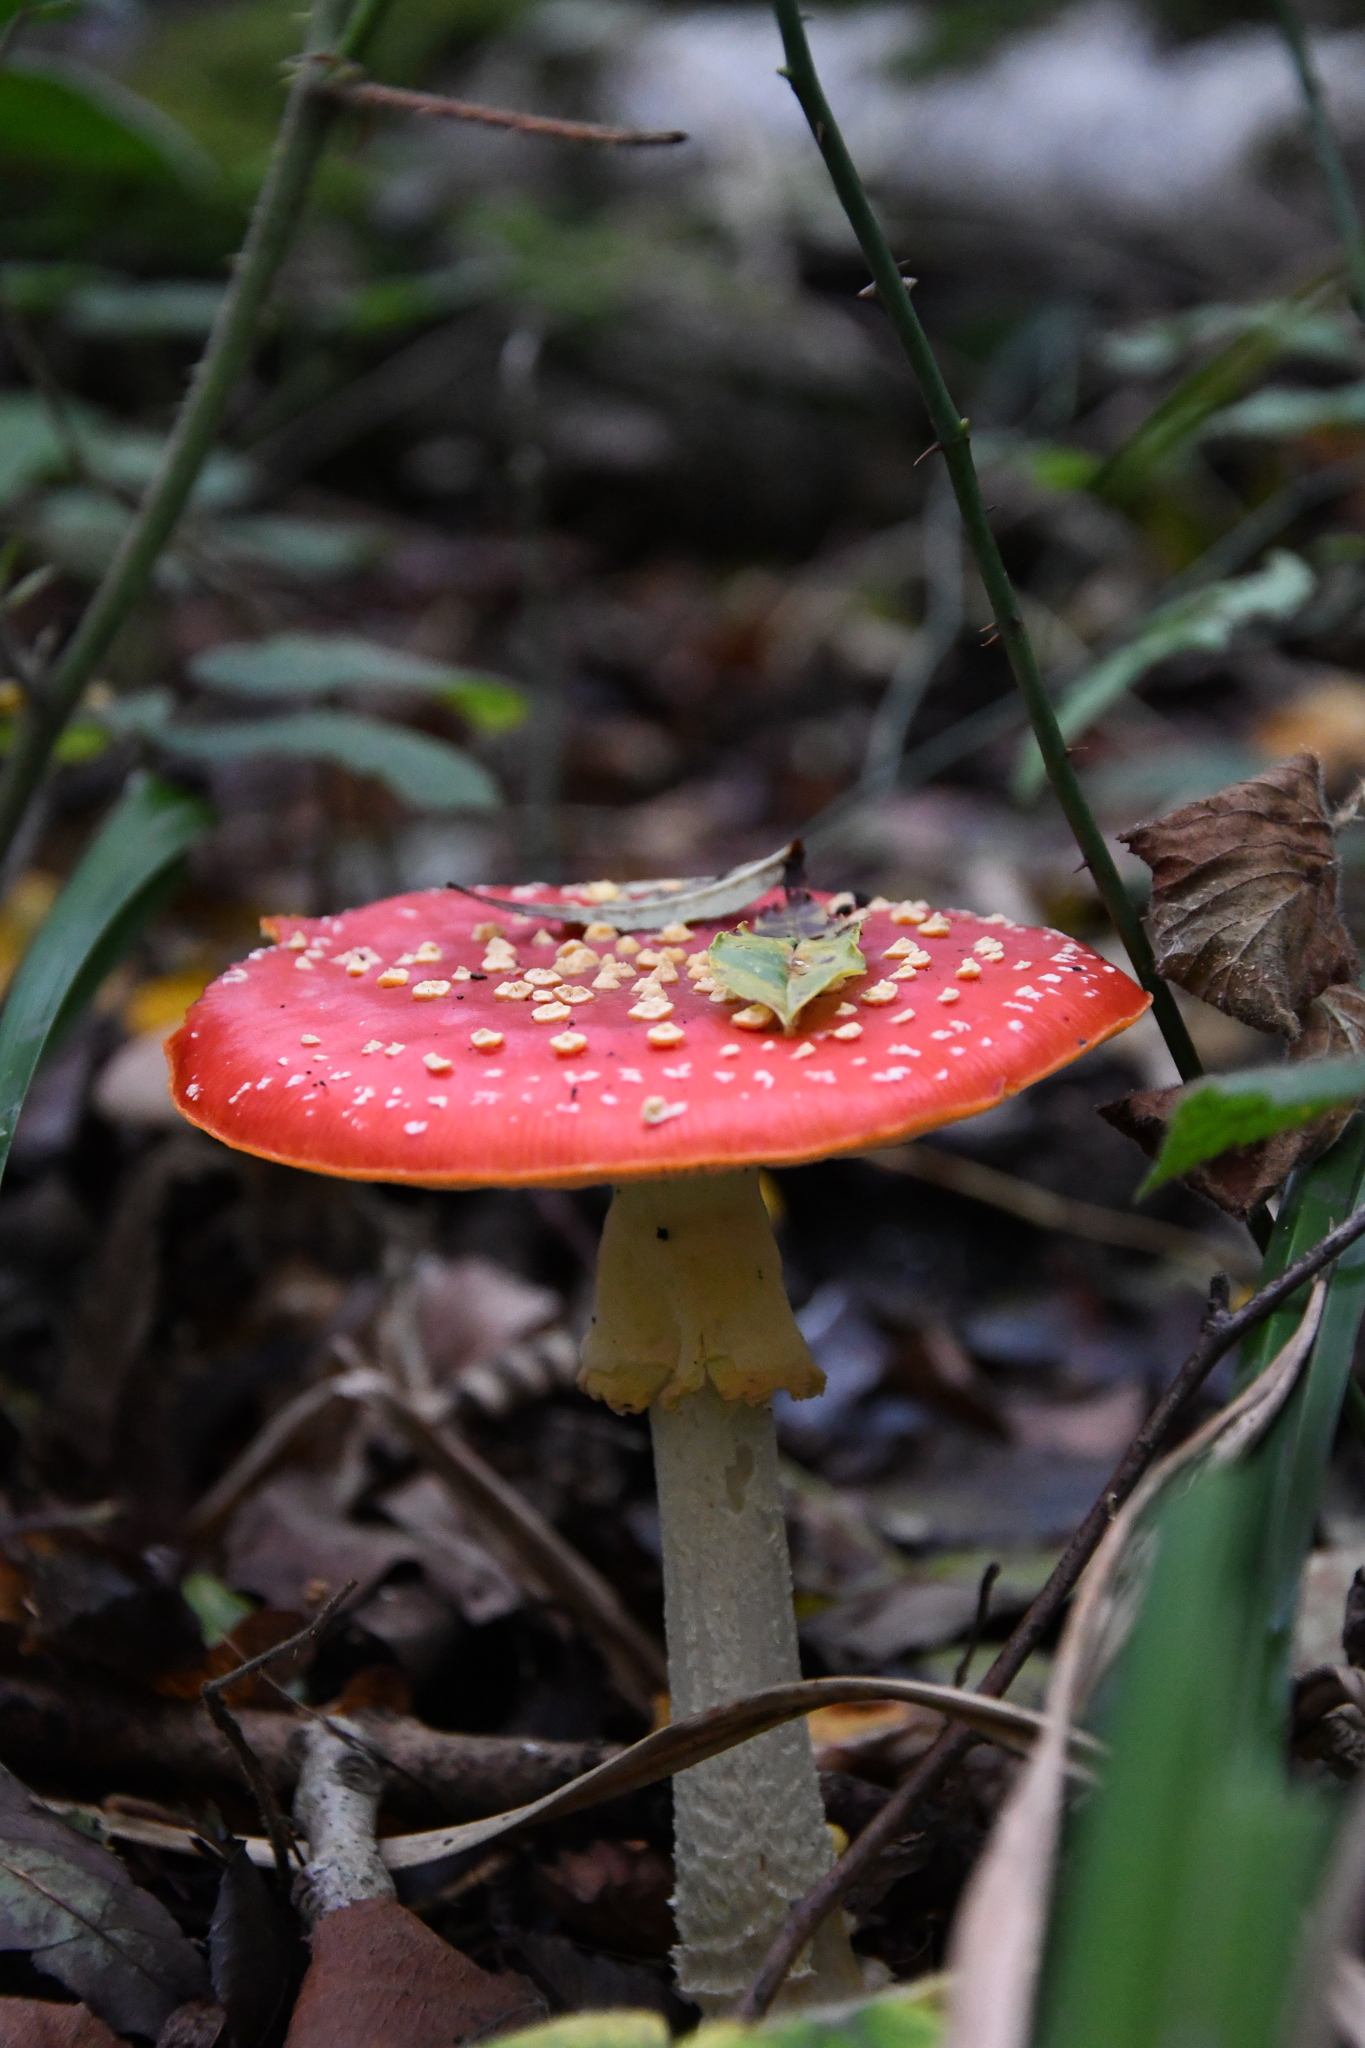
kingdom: Fungi
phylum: Basidiomycota
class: Agaricomycetes
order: Agaricales
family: Amanitaceae
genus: Amanita
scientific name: Amanita muscaria
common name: Fly agaric
